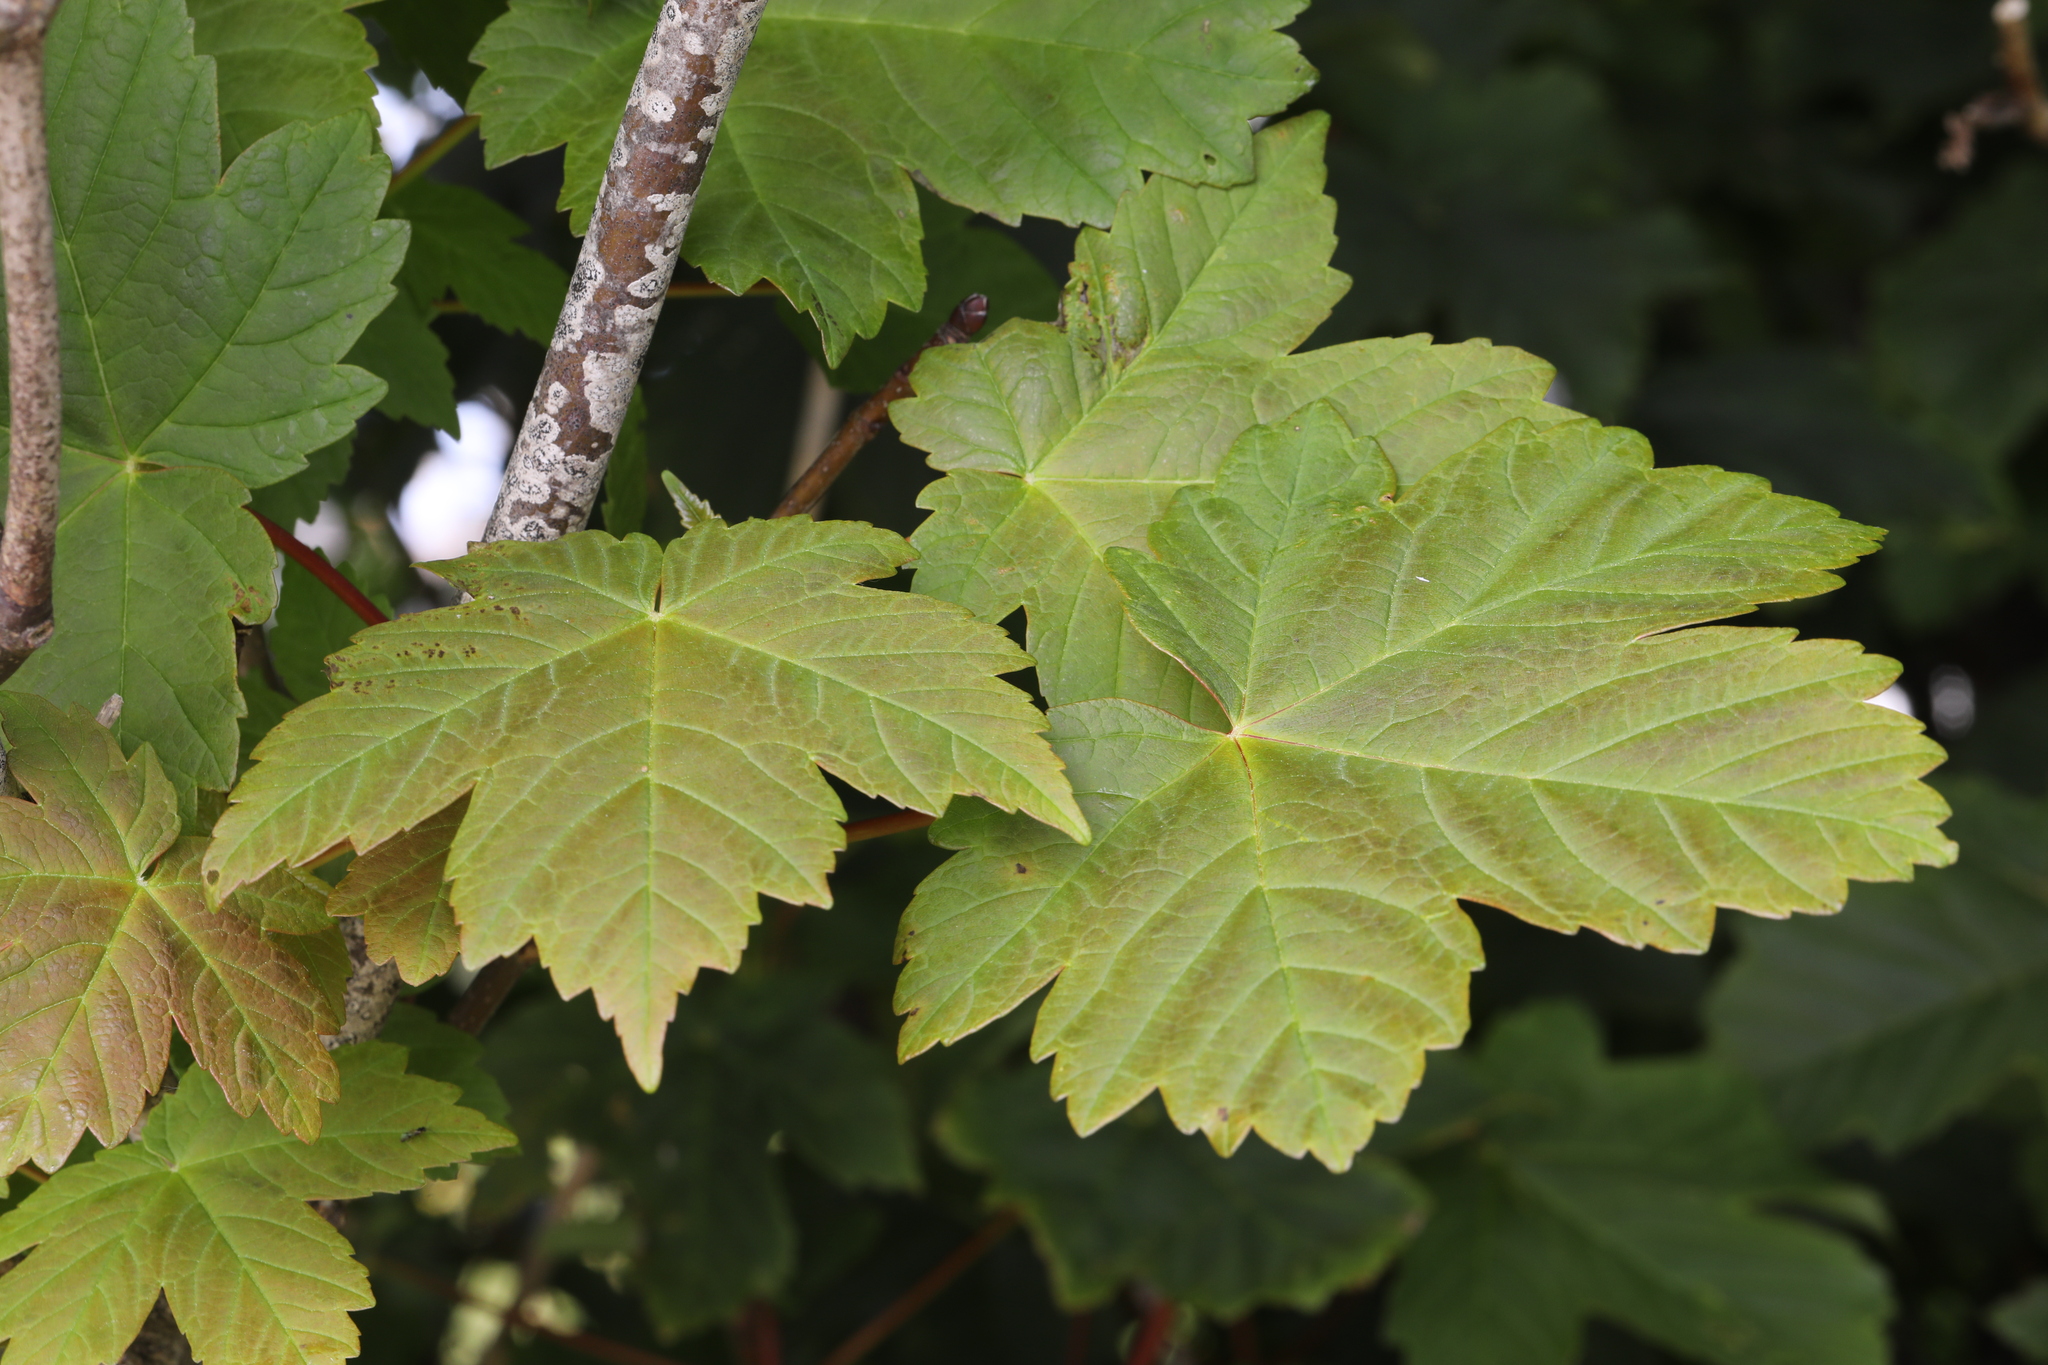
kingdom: Plantae
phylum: Tracheophyta
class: Magnoliopsida
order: Sapindales
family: Sapindaceae
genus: Acer
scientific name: Acer pseudoplatanus
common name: Sycamore
